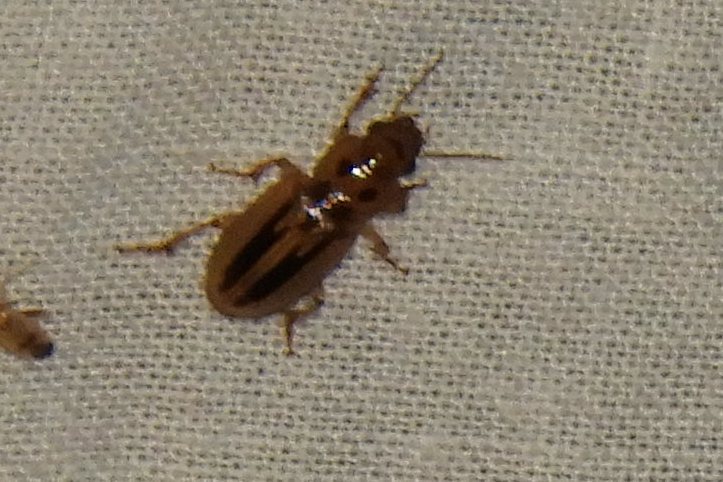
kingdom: Animalia
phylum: Arthropoda
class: Insecta
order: Coleoptera
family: Carabidae
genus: Stenolophus
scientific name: Stenolophus lineola
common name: Lined stenolophus
